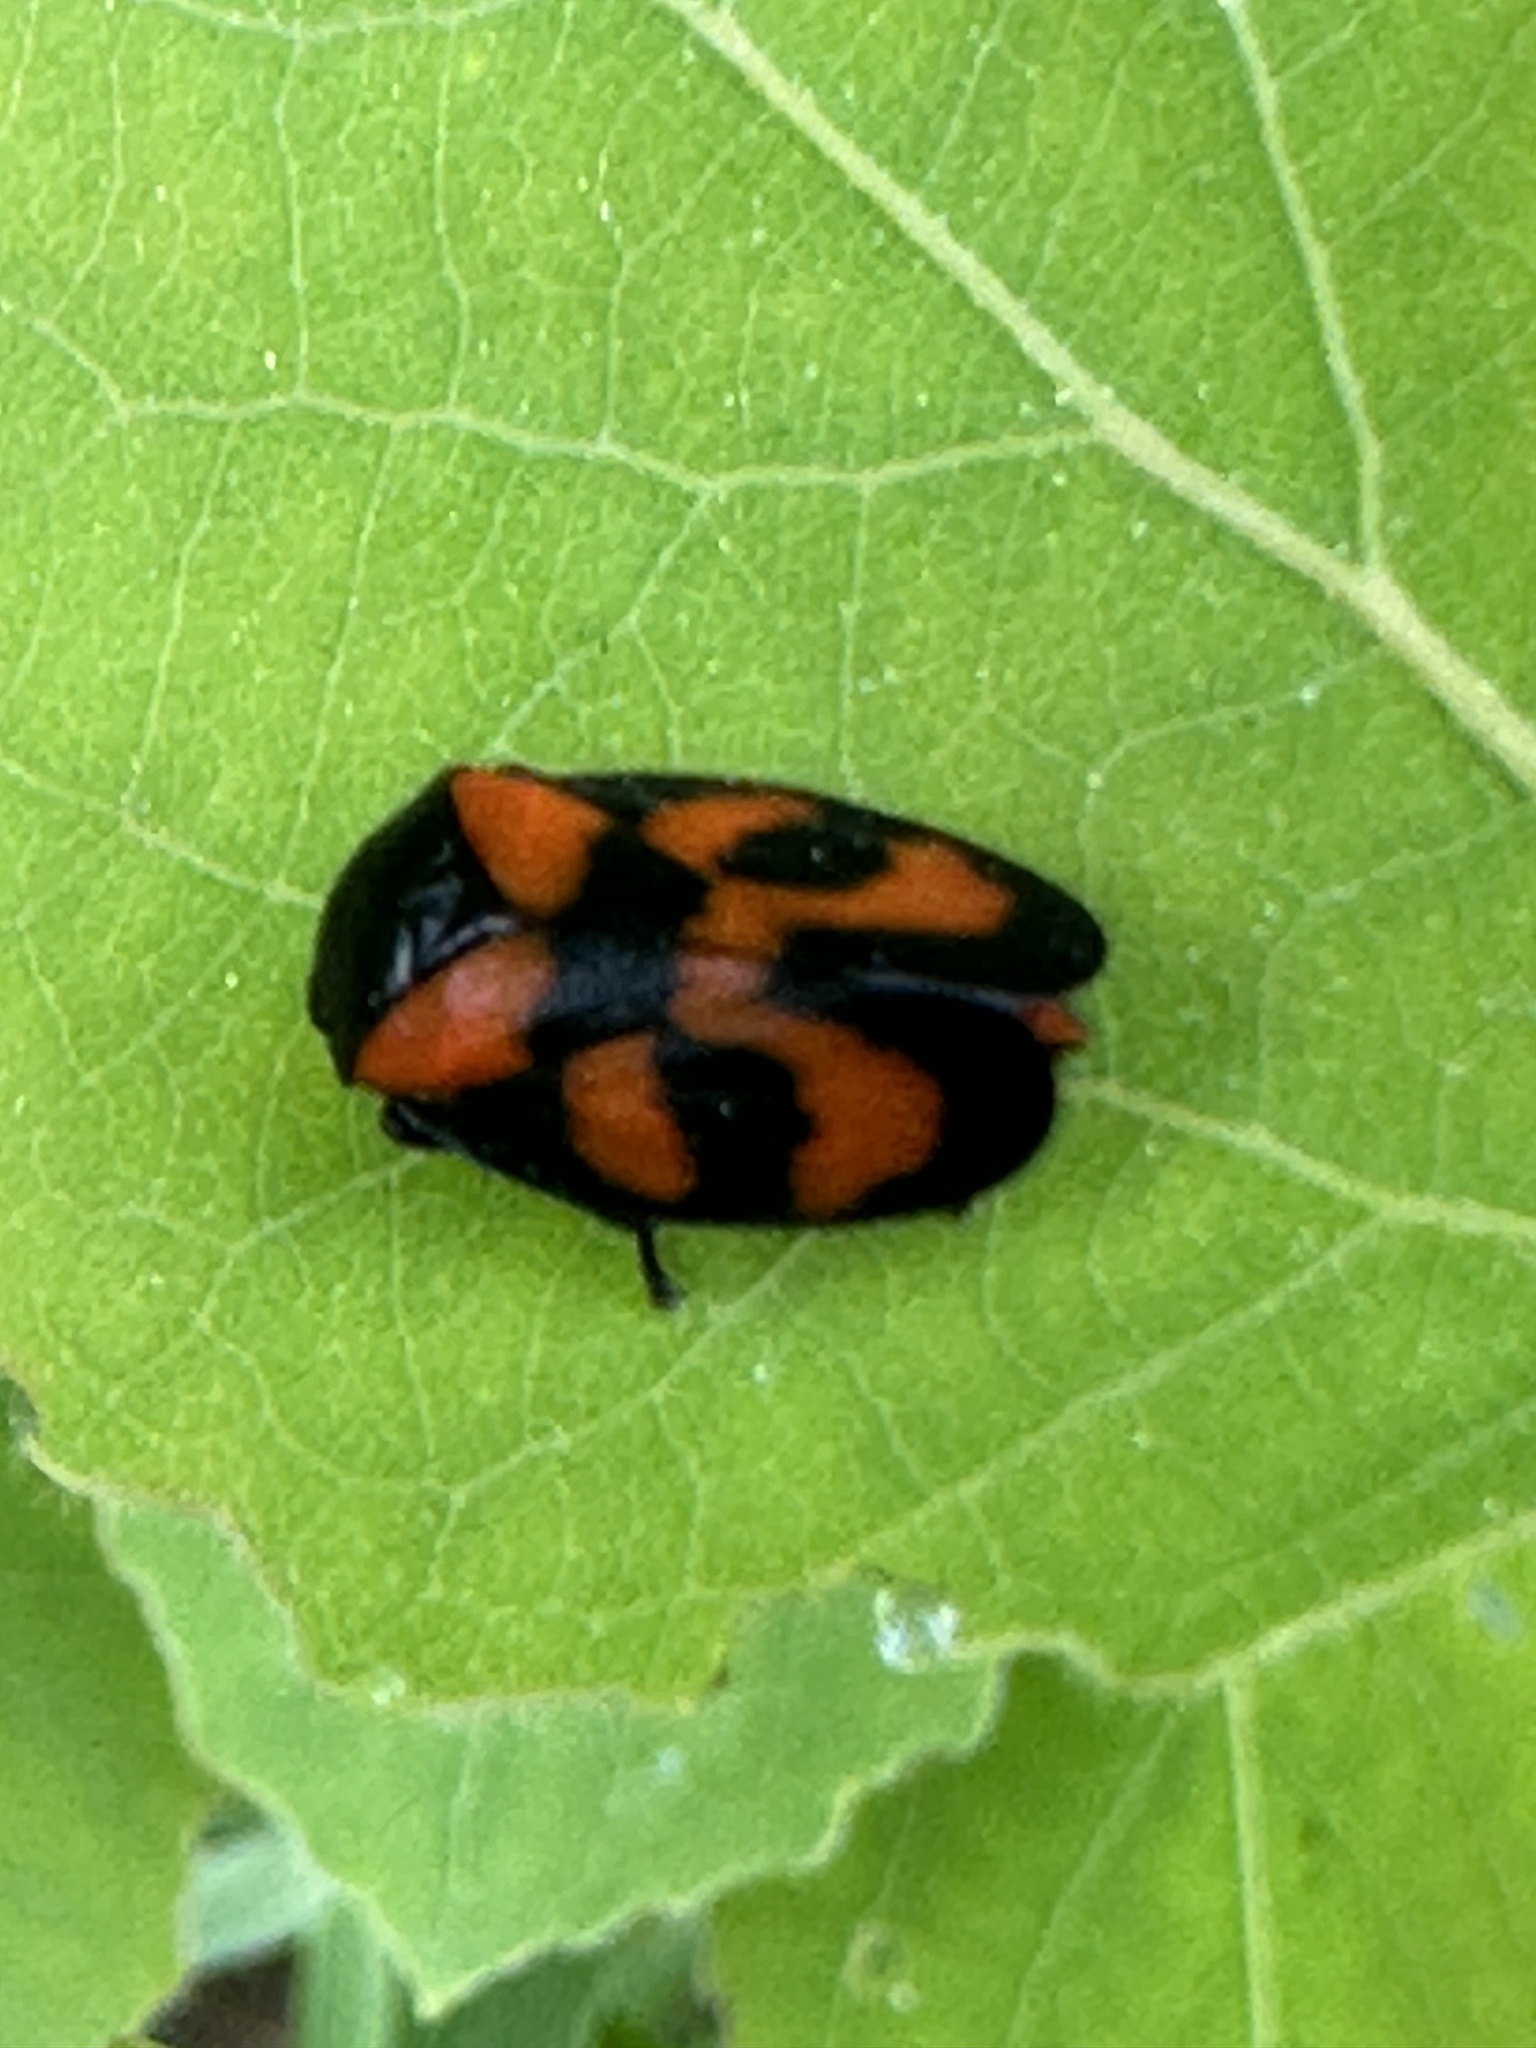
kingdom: Animalia
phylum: Arthropoda
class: Insecta
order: Hemiptera
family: Cercopidae
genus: Cercopis
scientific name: Cercopis vulnerata
